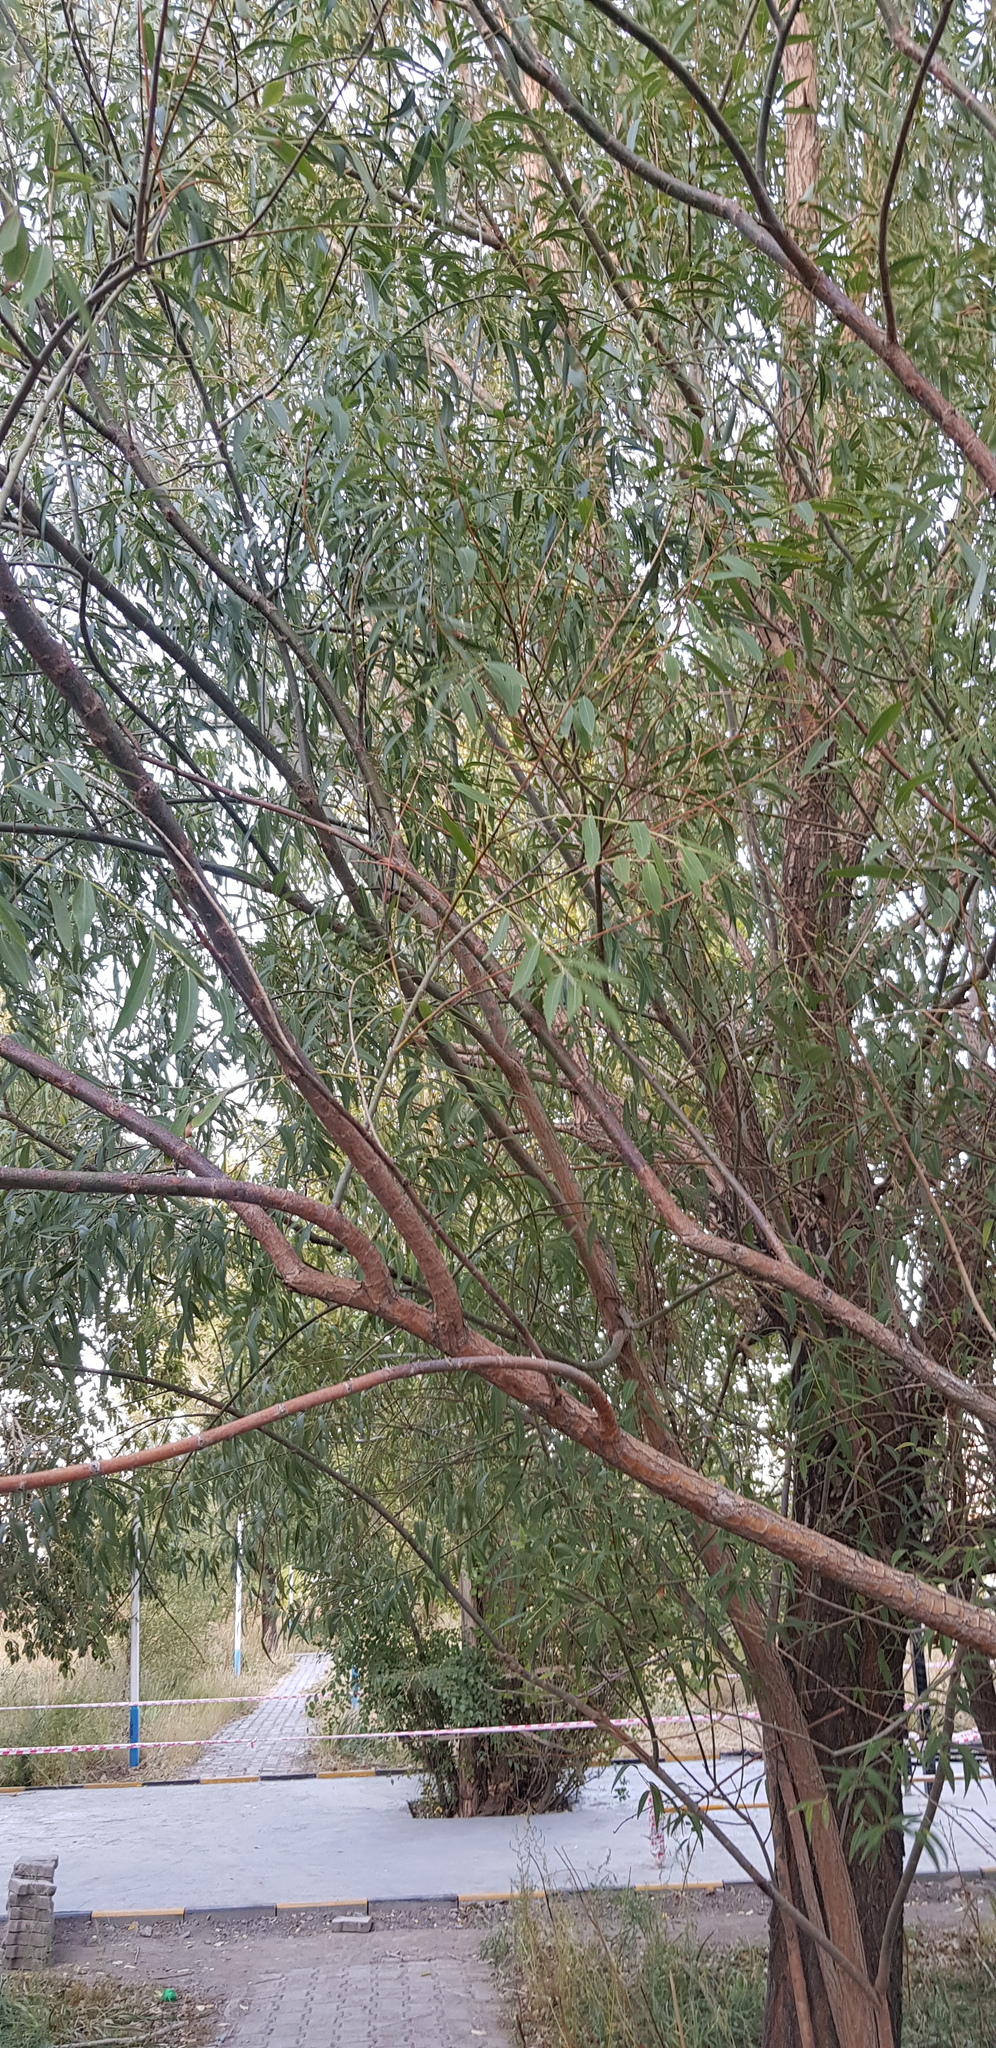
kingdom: Plantae
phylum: Tracheophyta
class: Magnoliopsida
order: Rosales
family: Elaeagnaceae
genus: Elaeagnus
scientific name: Elaeagnus angustifolia
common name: Russian olive
